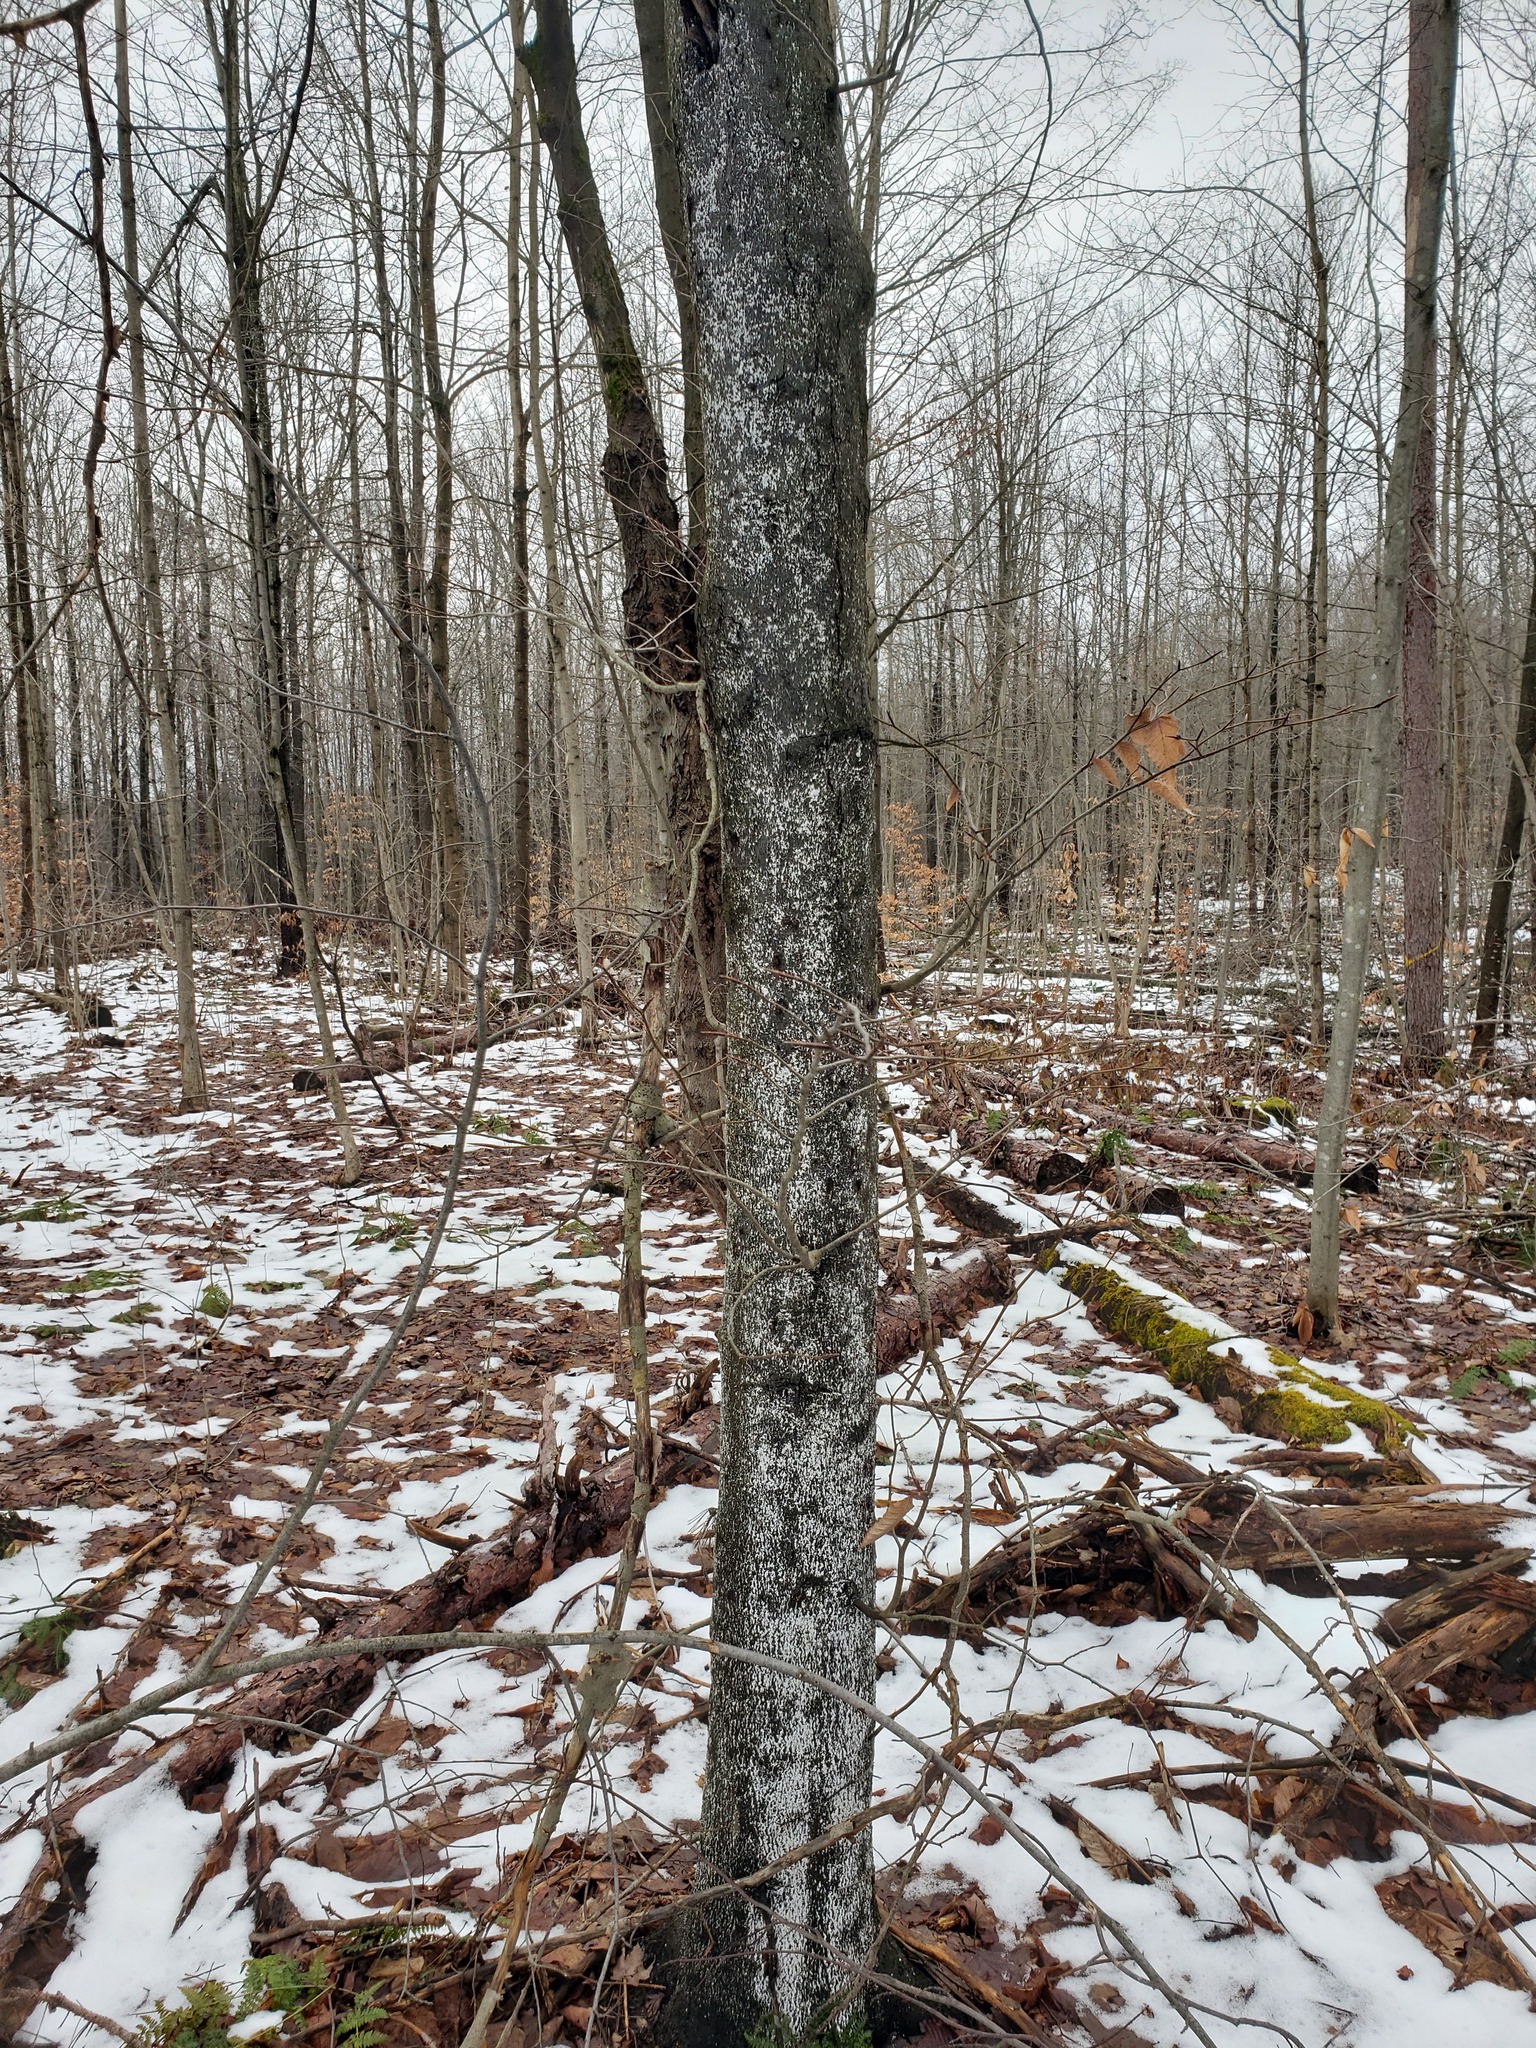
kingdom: Plantae
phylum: Tracheophyta
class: Magnoliopsida
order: Fagales
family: Fagaceae
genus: Fagus
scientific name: Fagus grandifolia
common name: American beech
